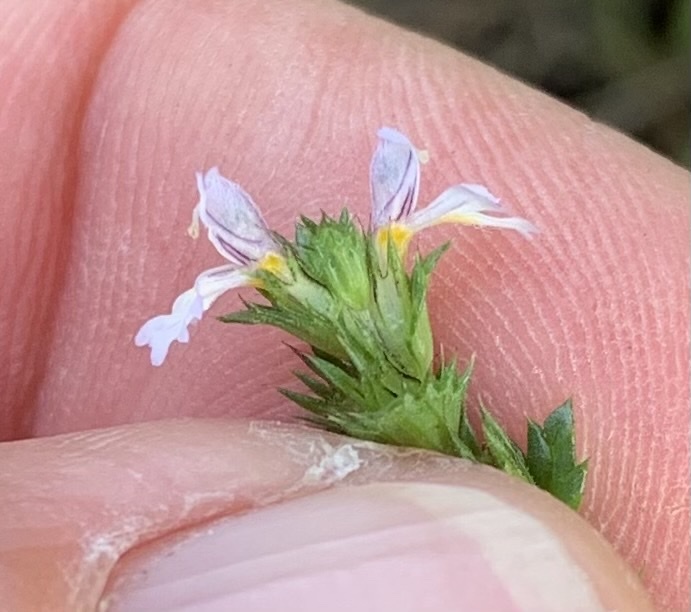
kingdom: Plantae
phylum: Tracheophyta
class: Magnoliopsida
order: Lamiales
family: Orobanchaceae
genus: Euphrasia
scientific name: Euphrasia nemorosa
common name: Common eyebright
